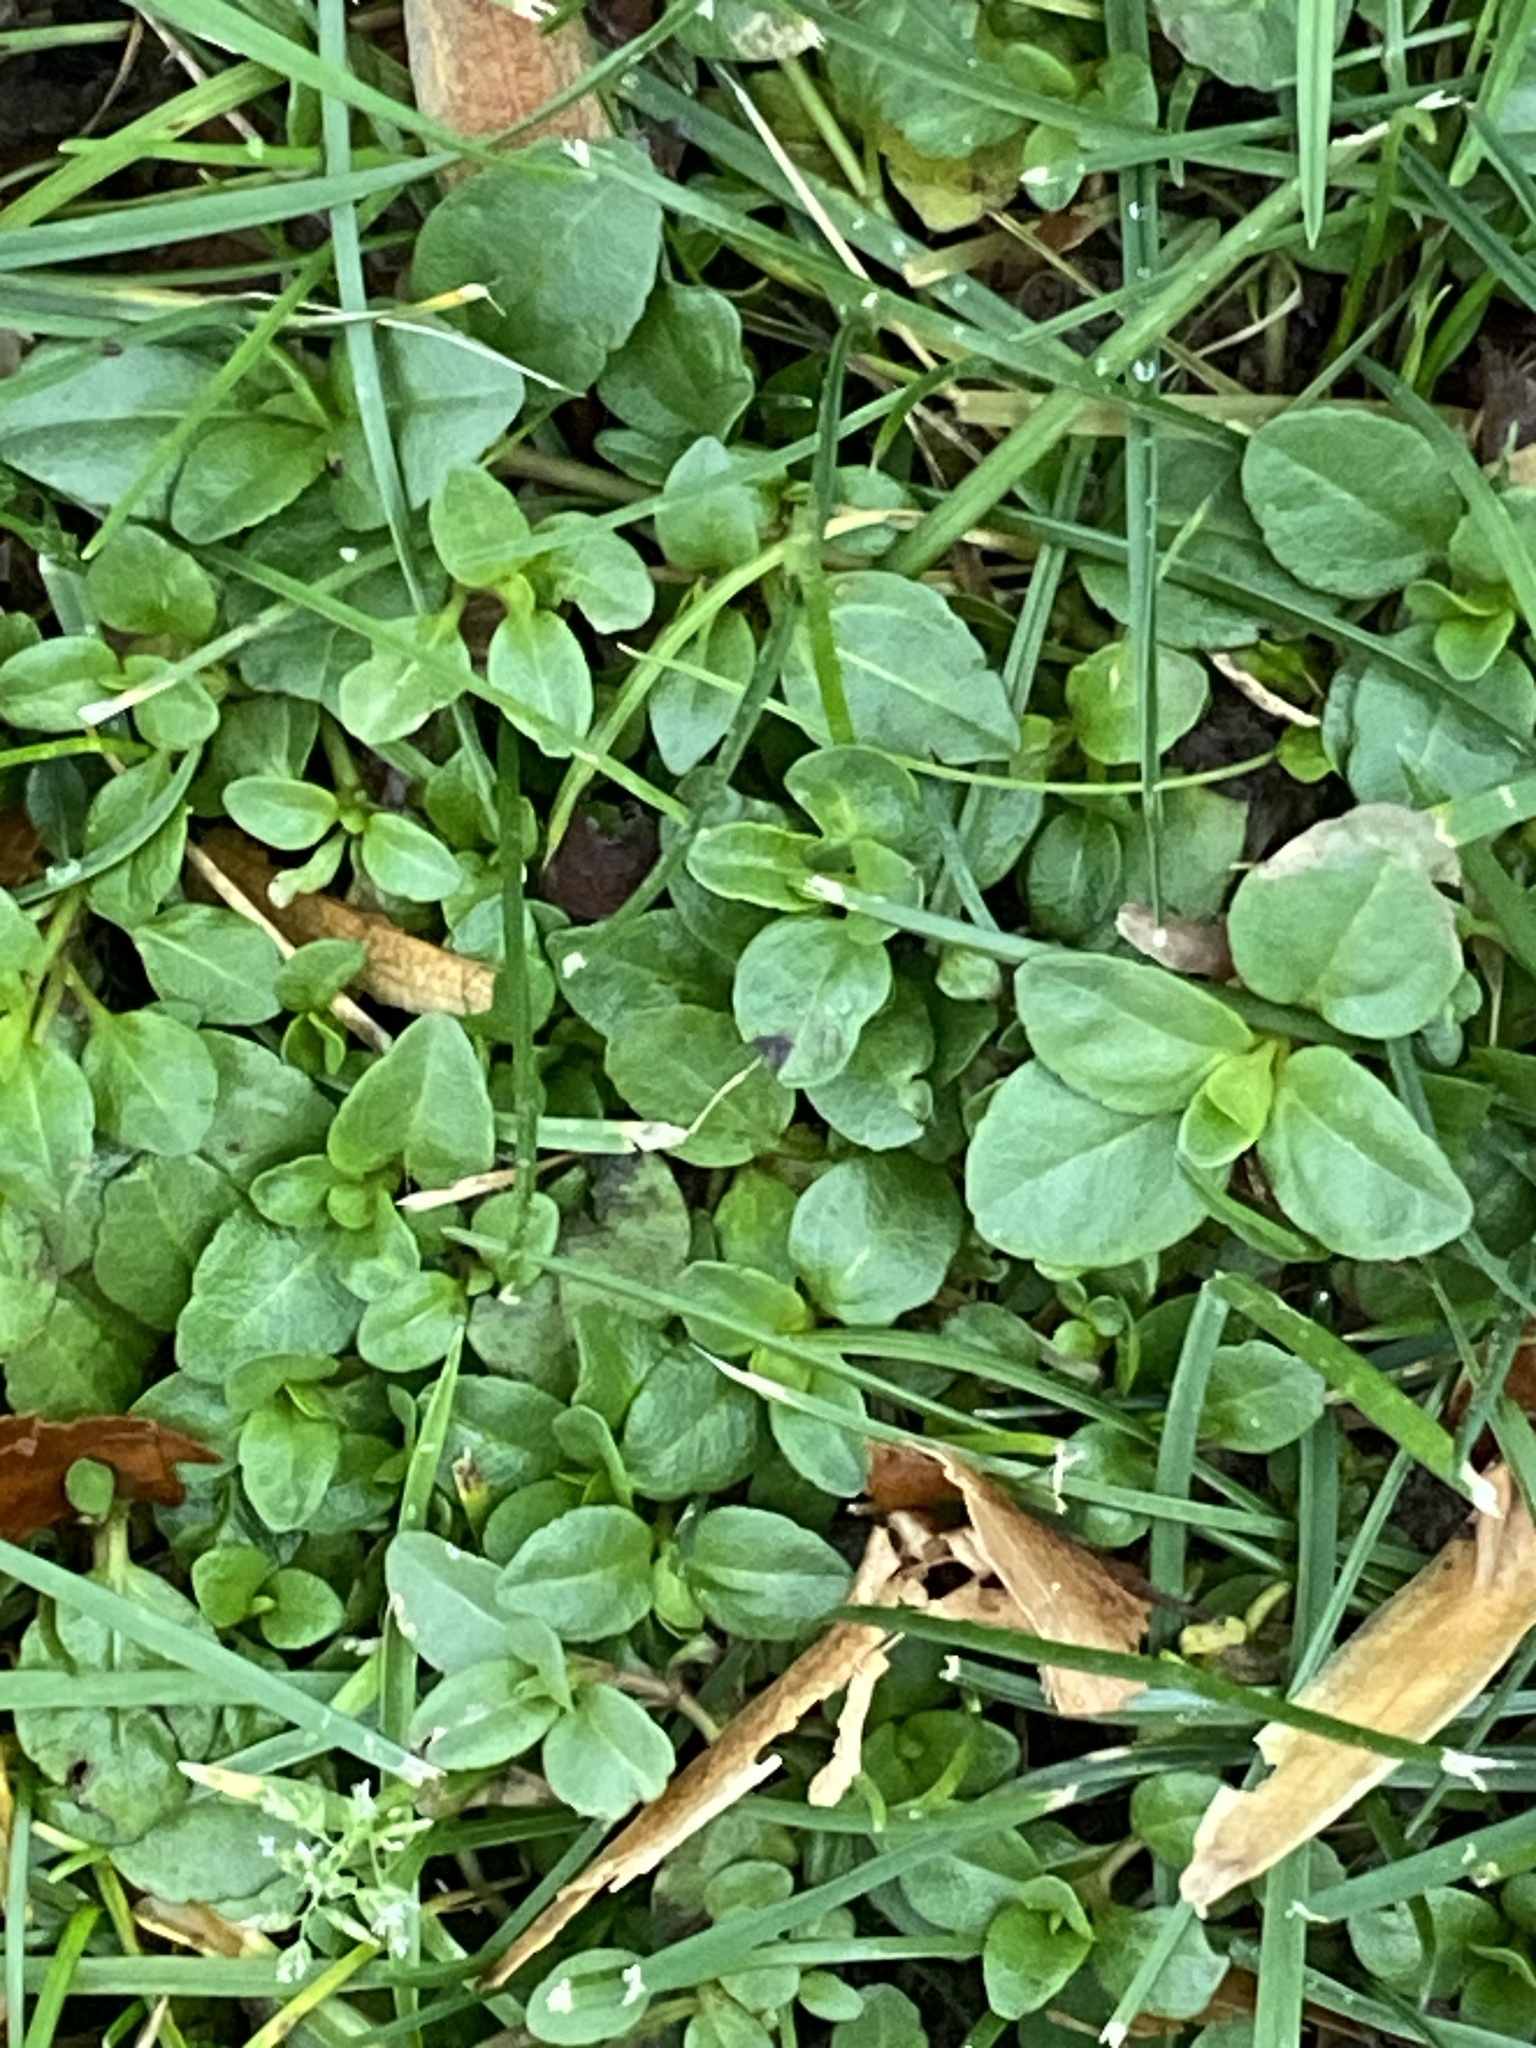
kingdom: Plantae
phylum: Tracheophyta
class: Magnoliopsida
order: Lamiales
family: Plantaginaceae
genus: Veronica
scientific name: Veronica serpyllifolia
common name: Thyme-leaved speedwell
